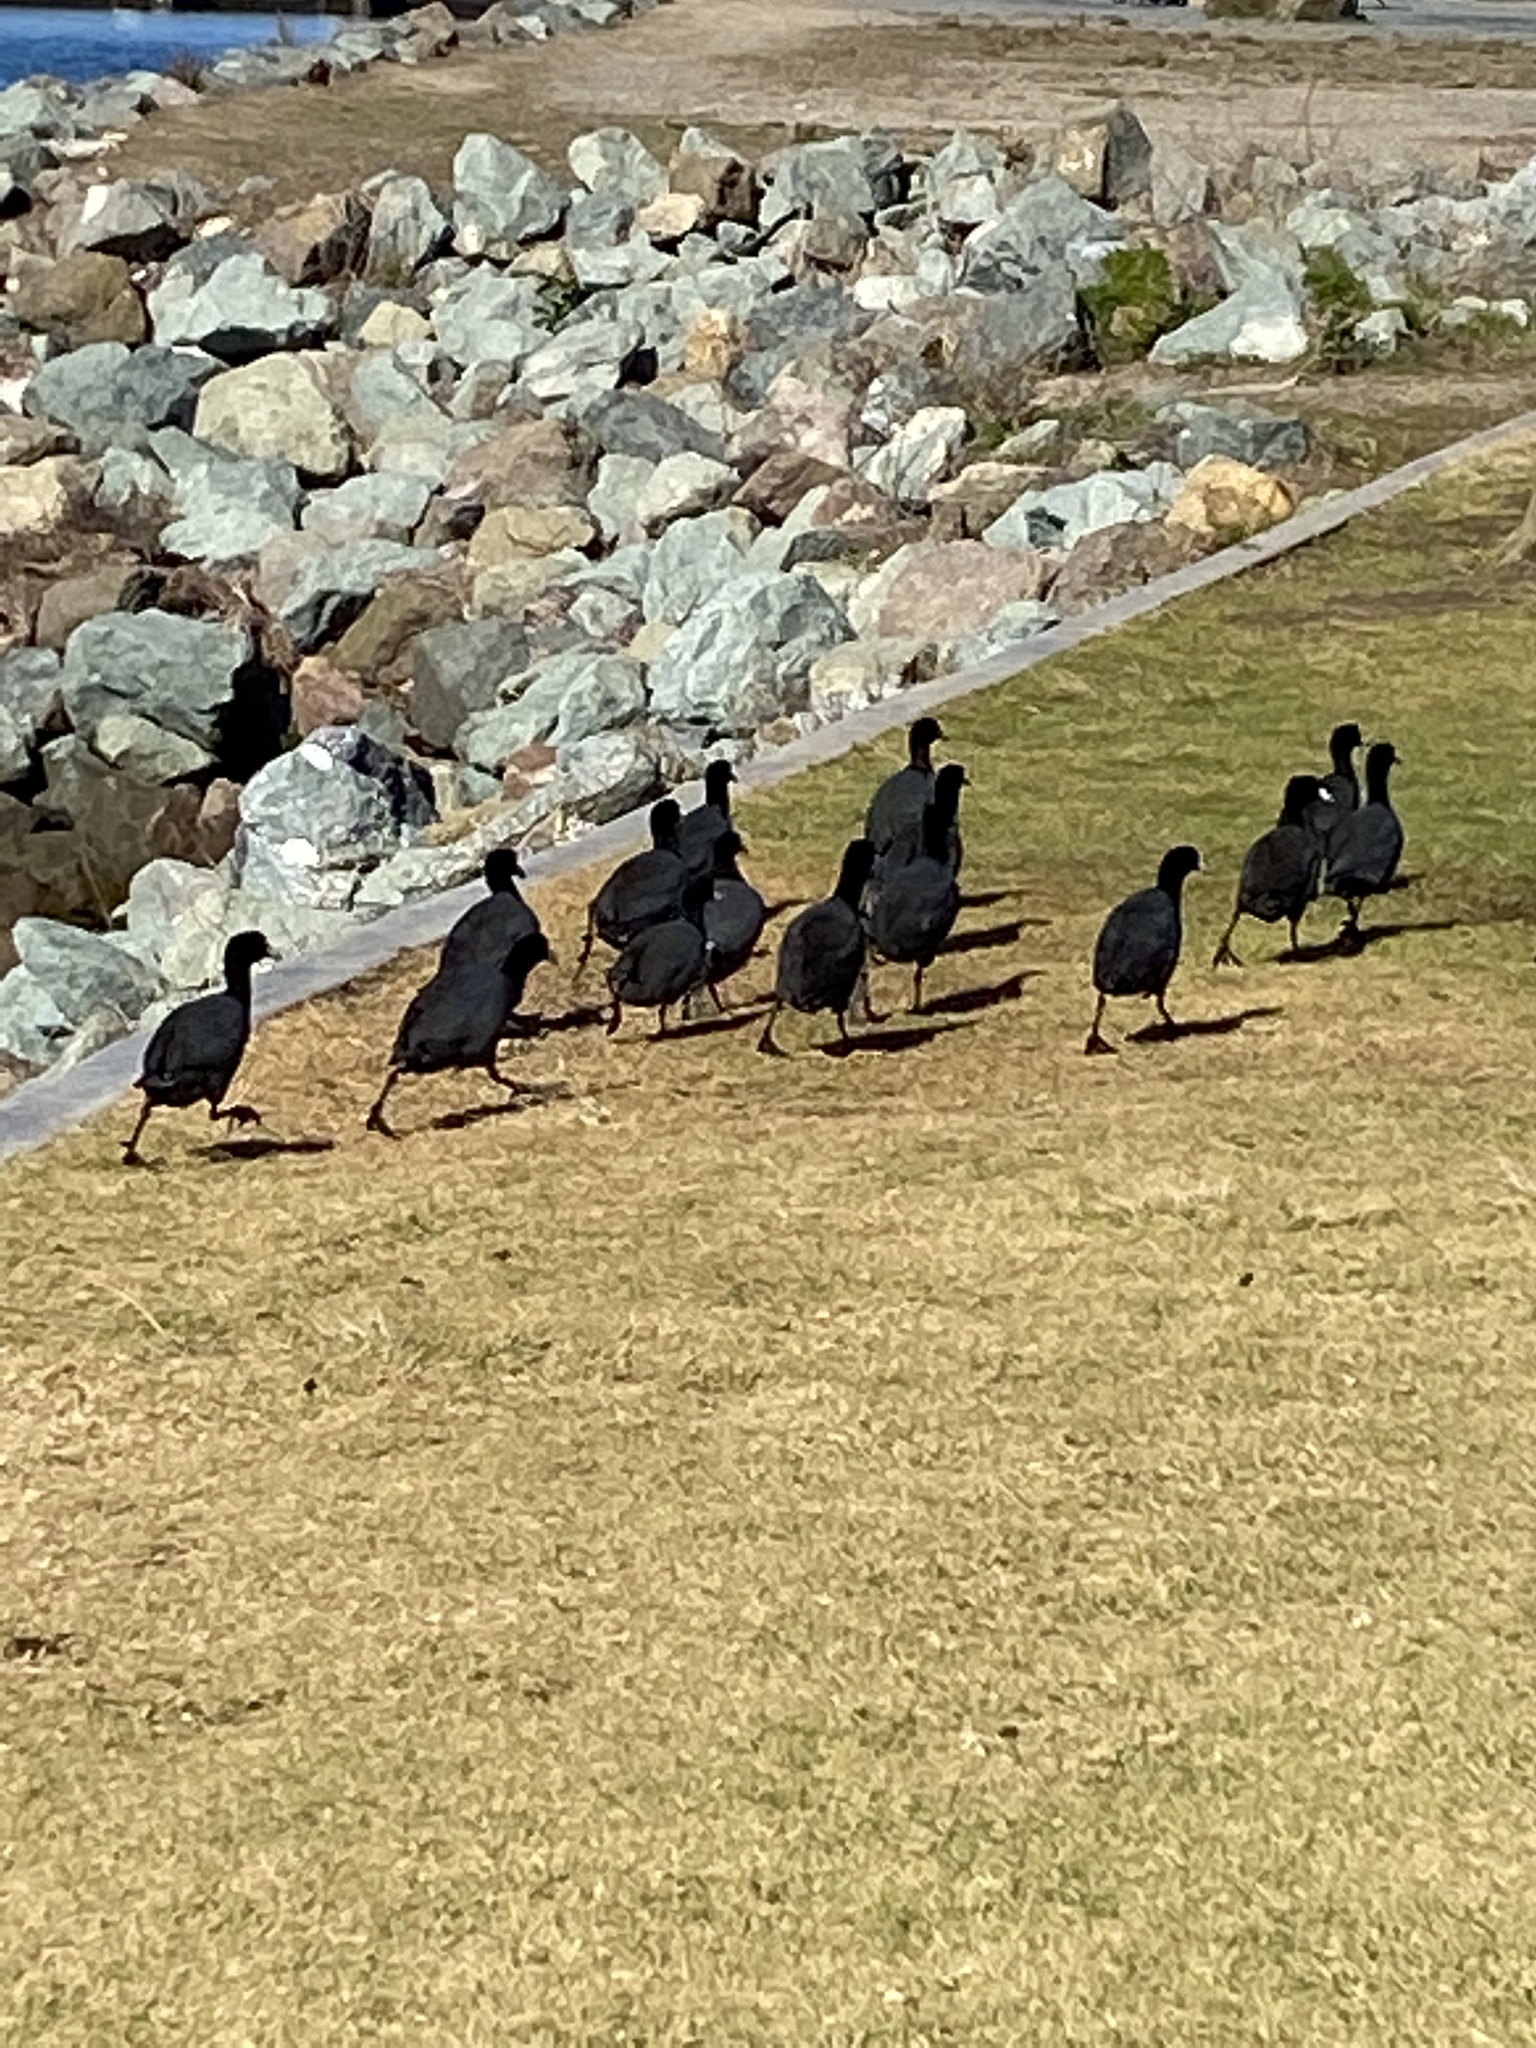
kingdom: Animalia
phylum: Chordata
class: Aves
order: Gruiformes
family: Rallidae
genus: Fulica
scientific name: Fulica americana
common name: American coot
